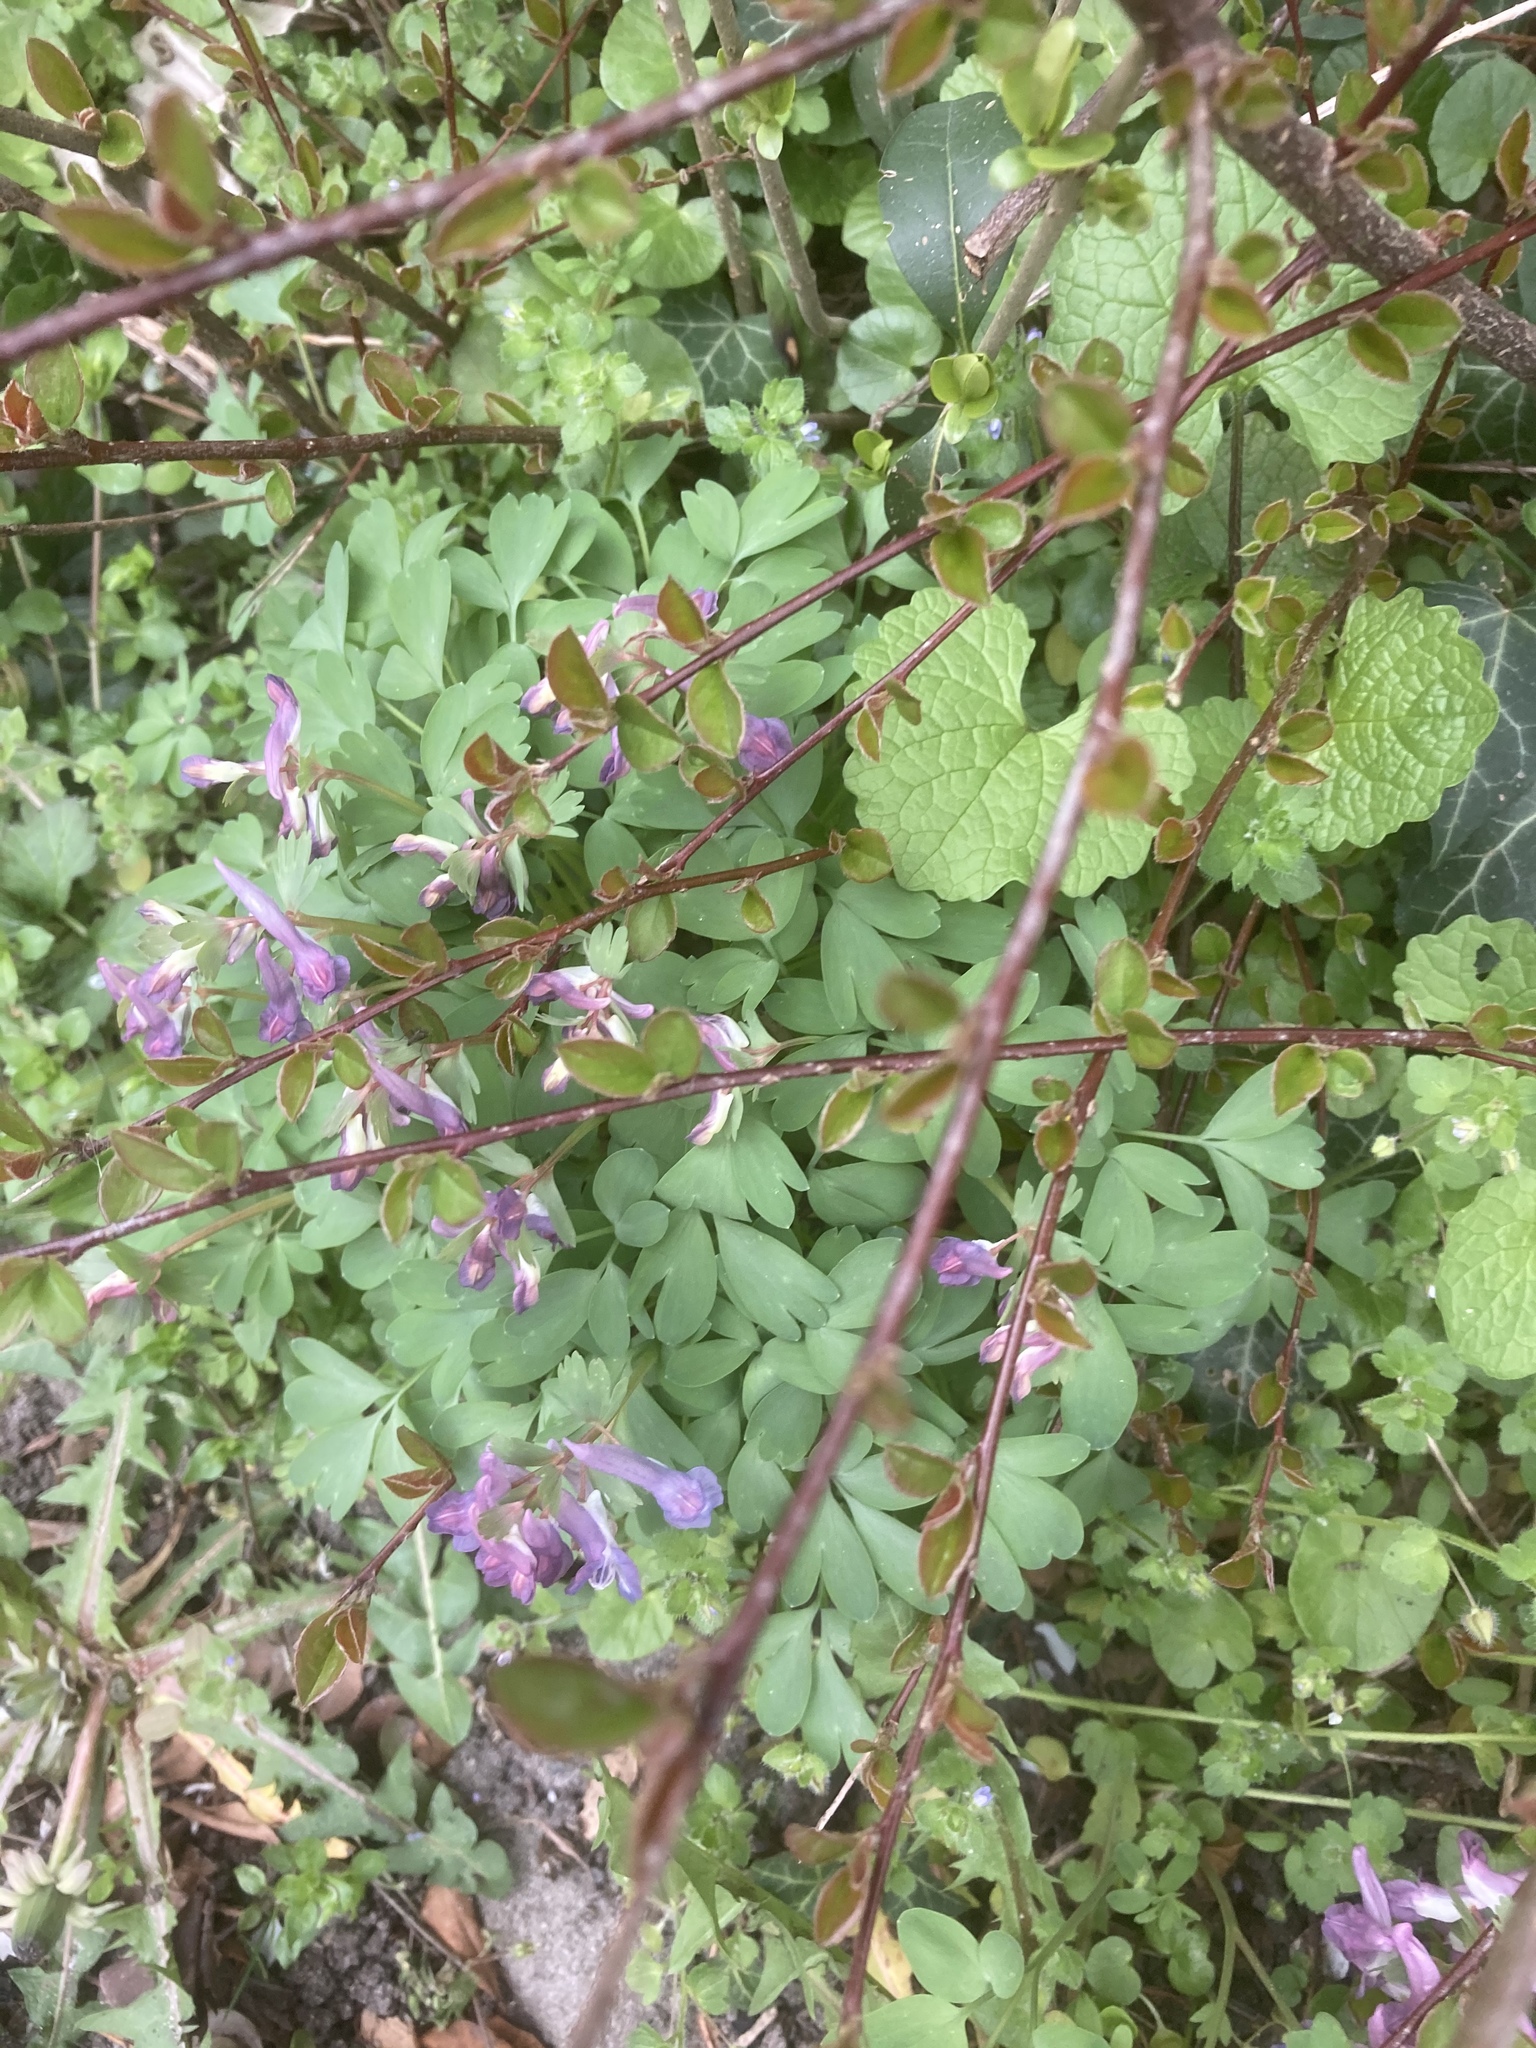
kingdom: Plantae
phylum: Tracheophyta
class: Magnoliopsida
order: Ranunculales
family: Papaveraceae
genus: Corydalis
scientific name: Corydalis solida
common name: Bird-in-a-bush
